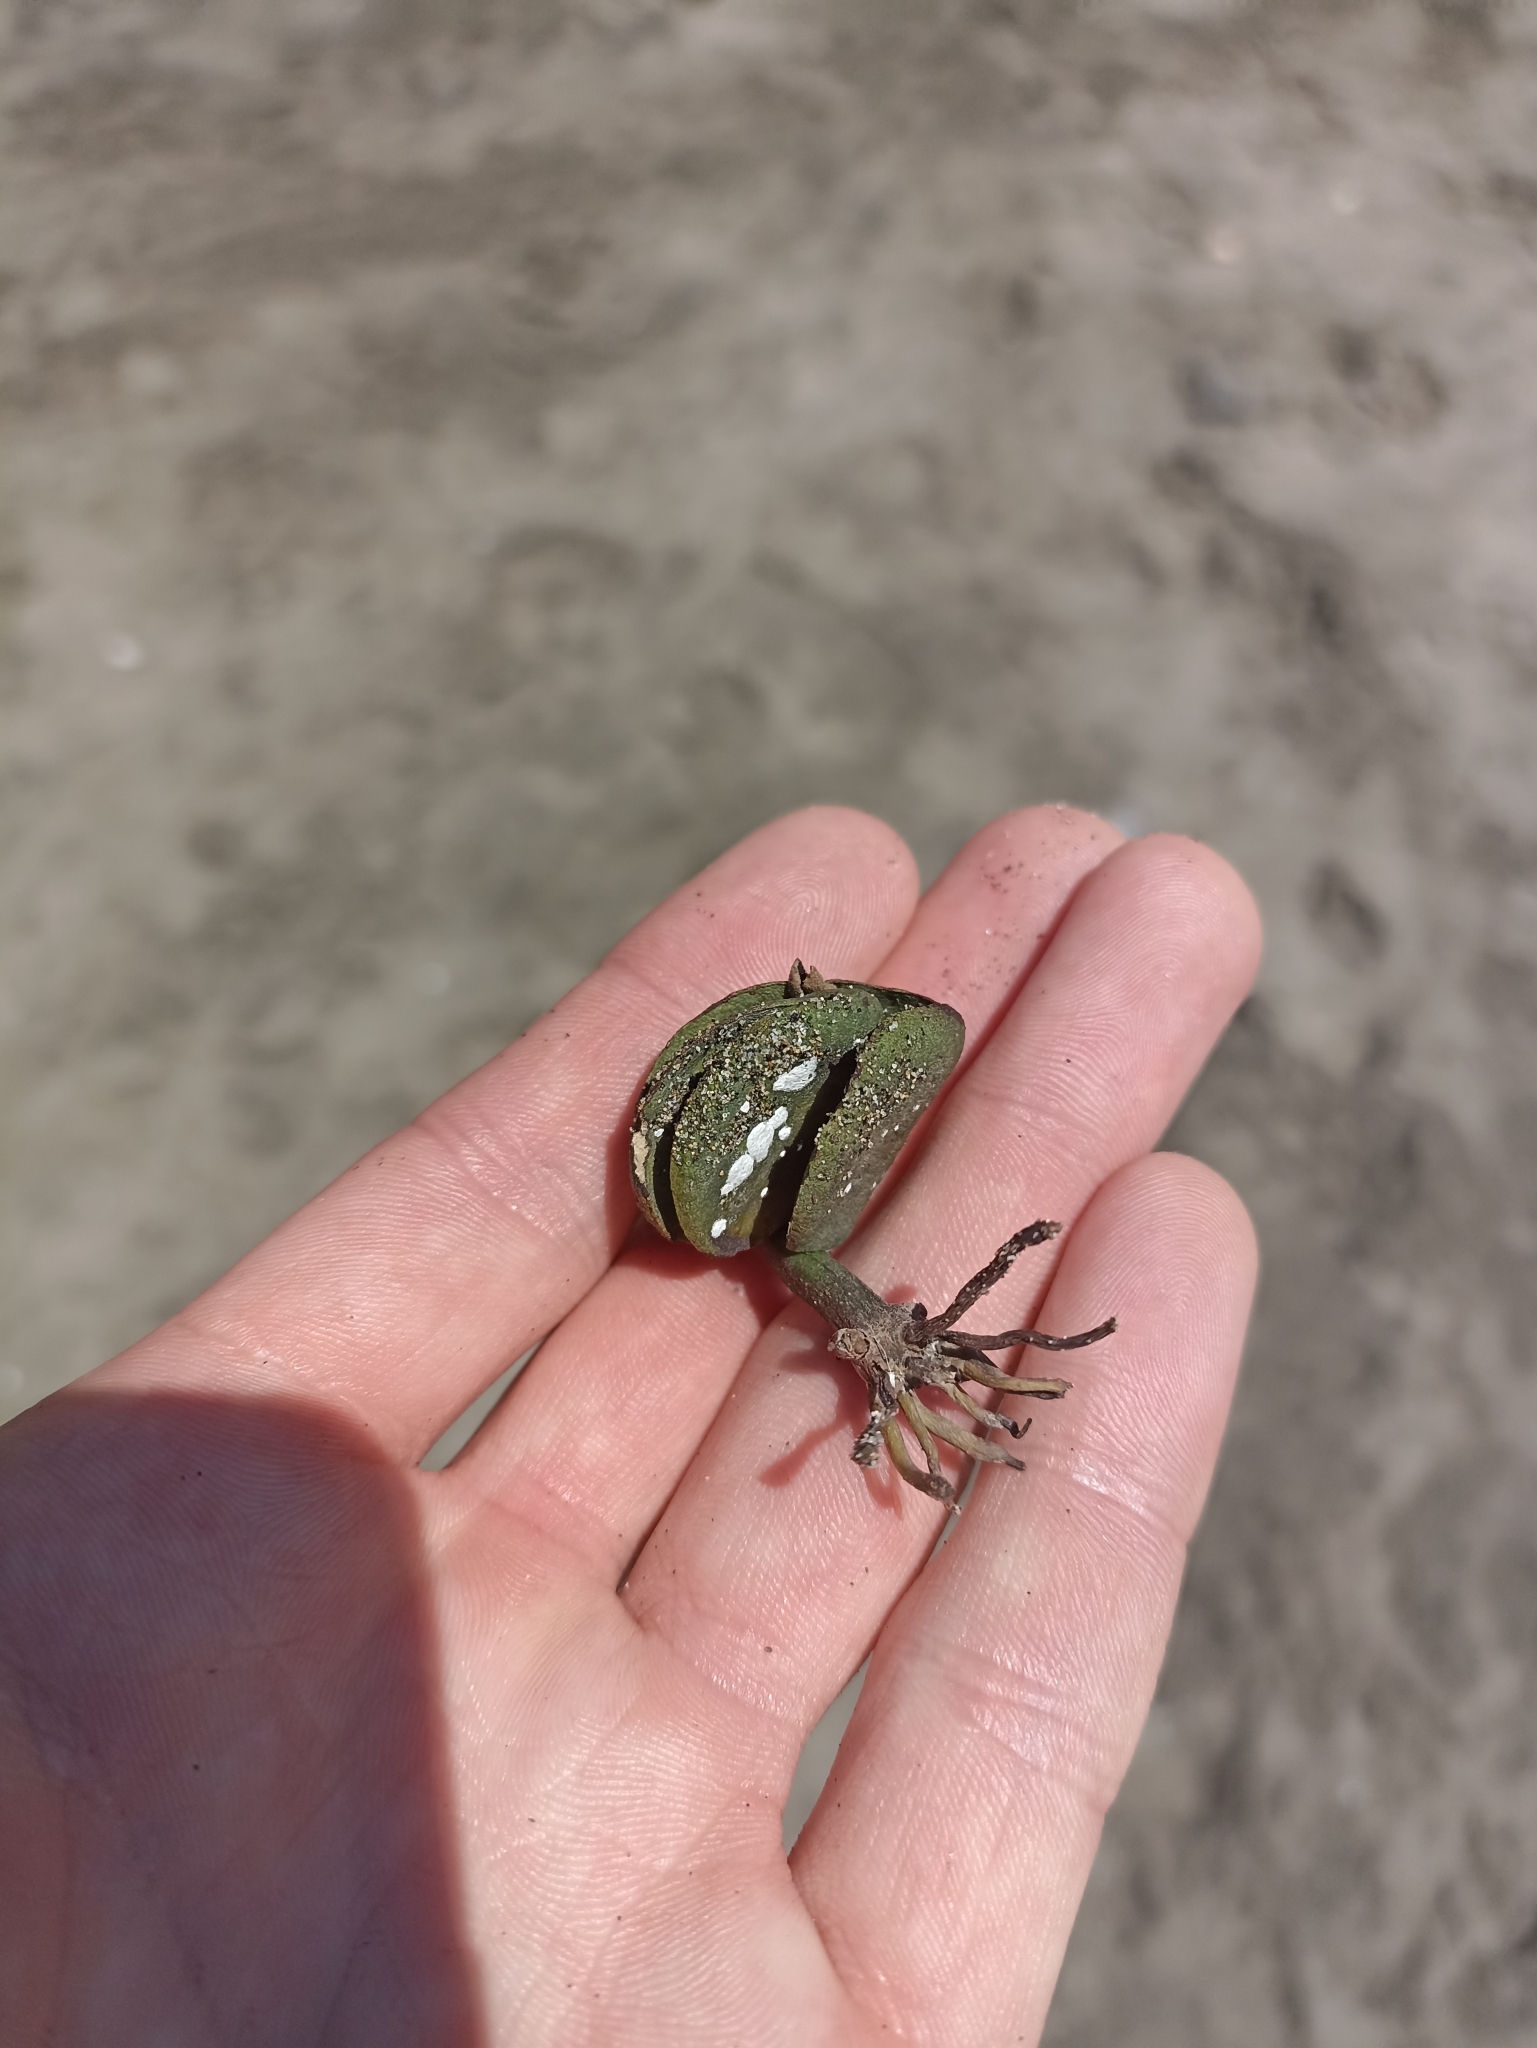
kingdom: Plantae
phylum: Tracheophyta
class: Magnoliopsida
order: Lamiales
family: Acanthaceae
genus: Avicennia
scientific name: Avicennia marina
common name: Gray mangrove
